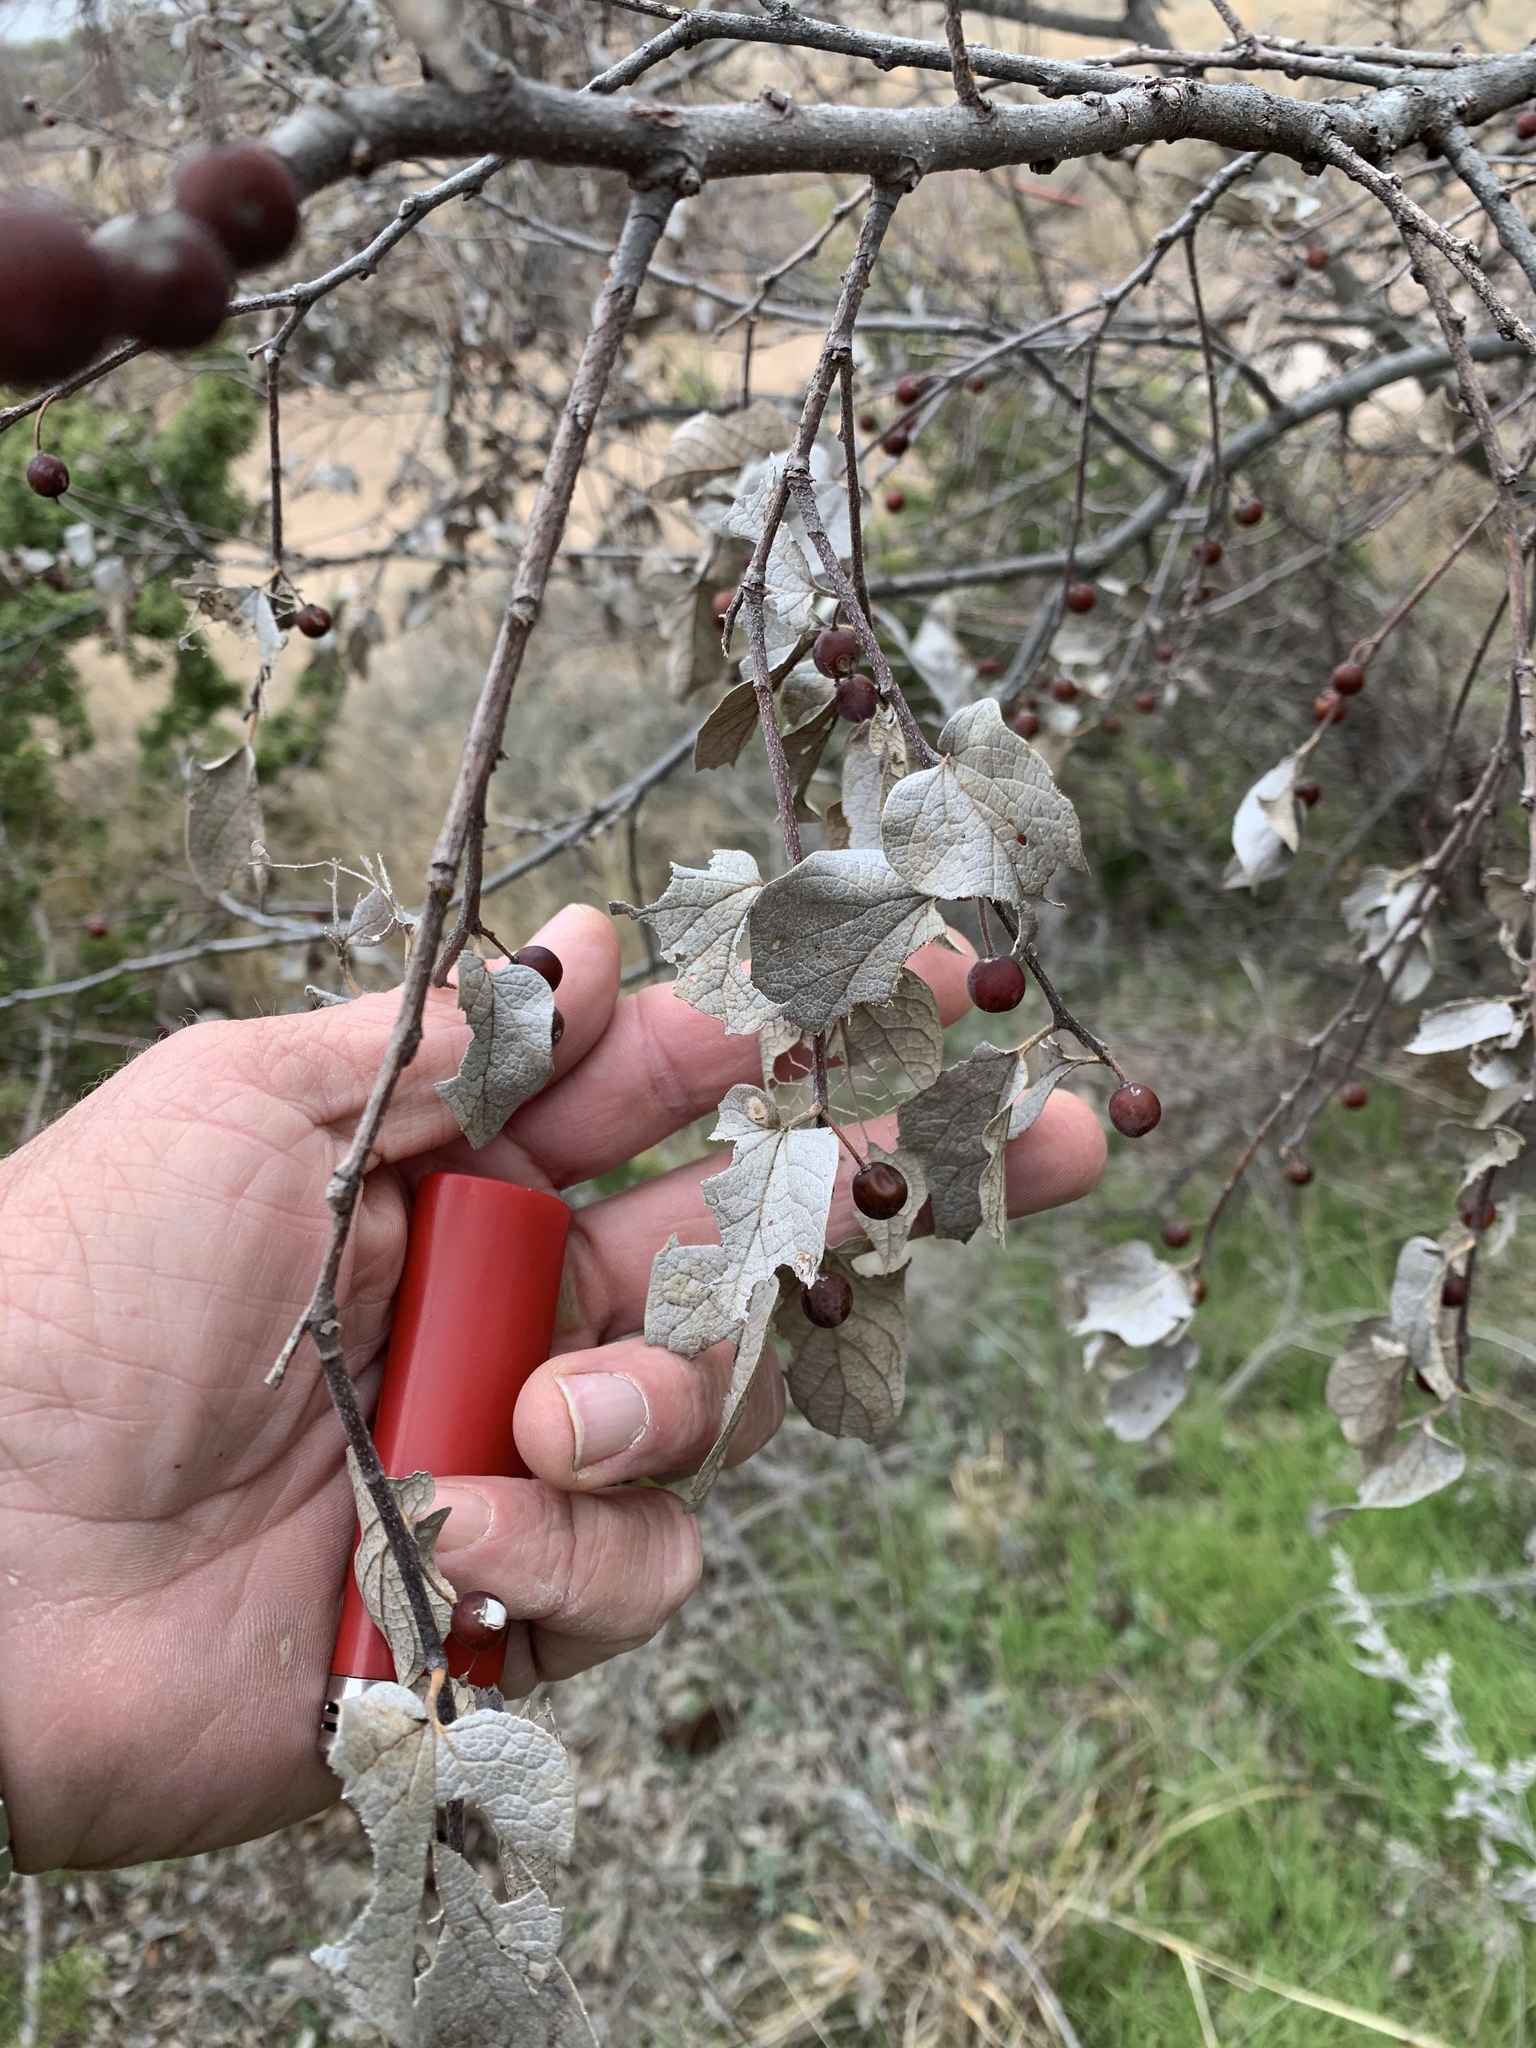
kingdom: Plantae
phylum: Tracheophyta
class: Magnoliopsida
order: Rosales
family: Cannabaceae
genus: Celtis
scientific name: Celtis reticulata
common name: Netleaf hackberry
